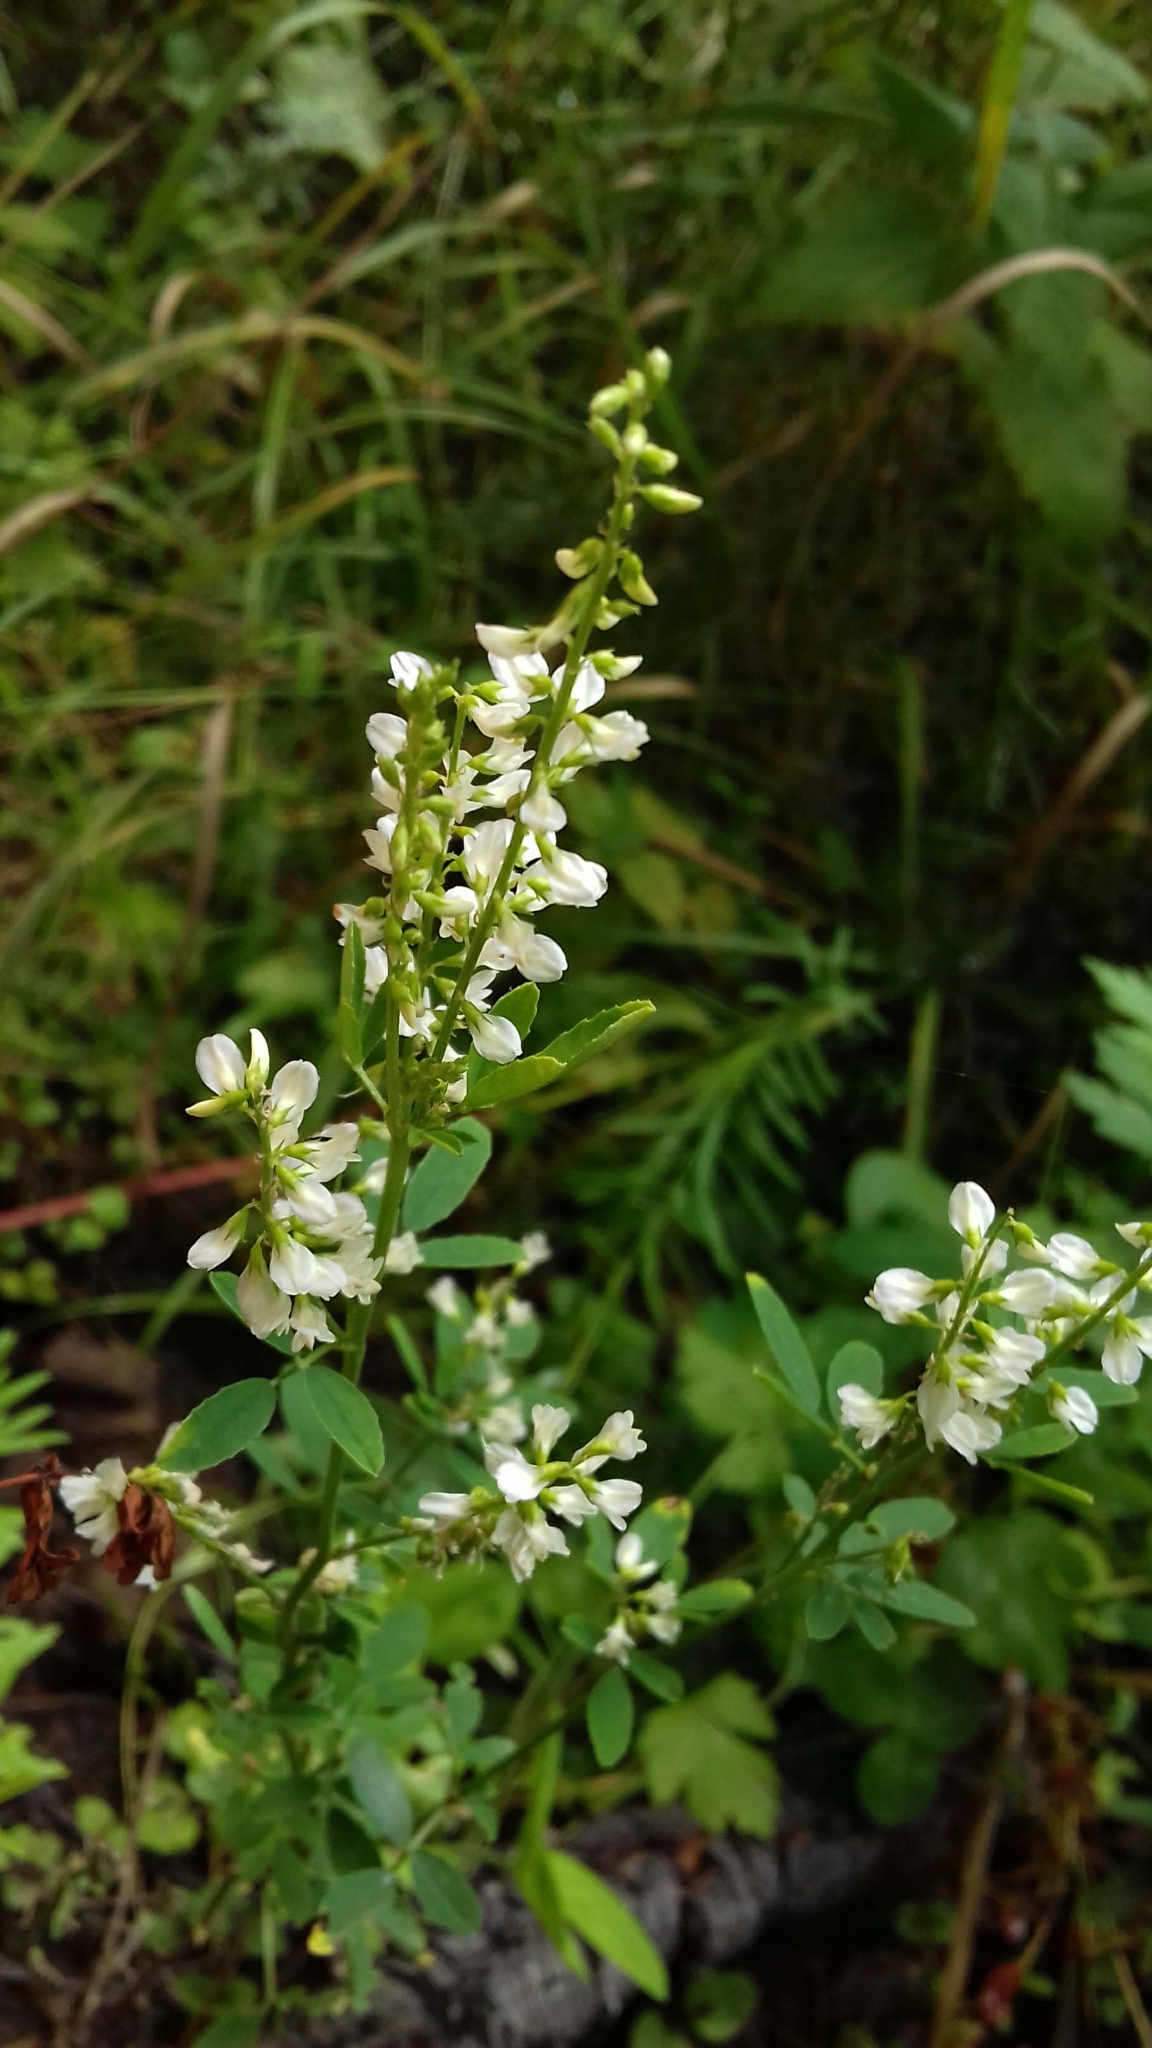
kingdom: Plantae
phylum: Tracheophyta
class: Magnoliopsida
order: Fabales
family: Fabaceae
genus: Melilotus
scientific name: Melilotus albus
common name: White melilot
